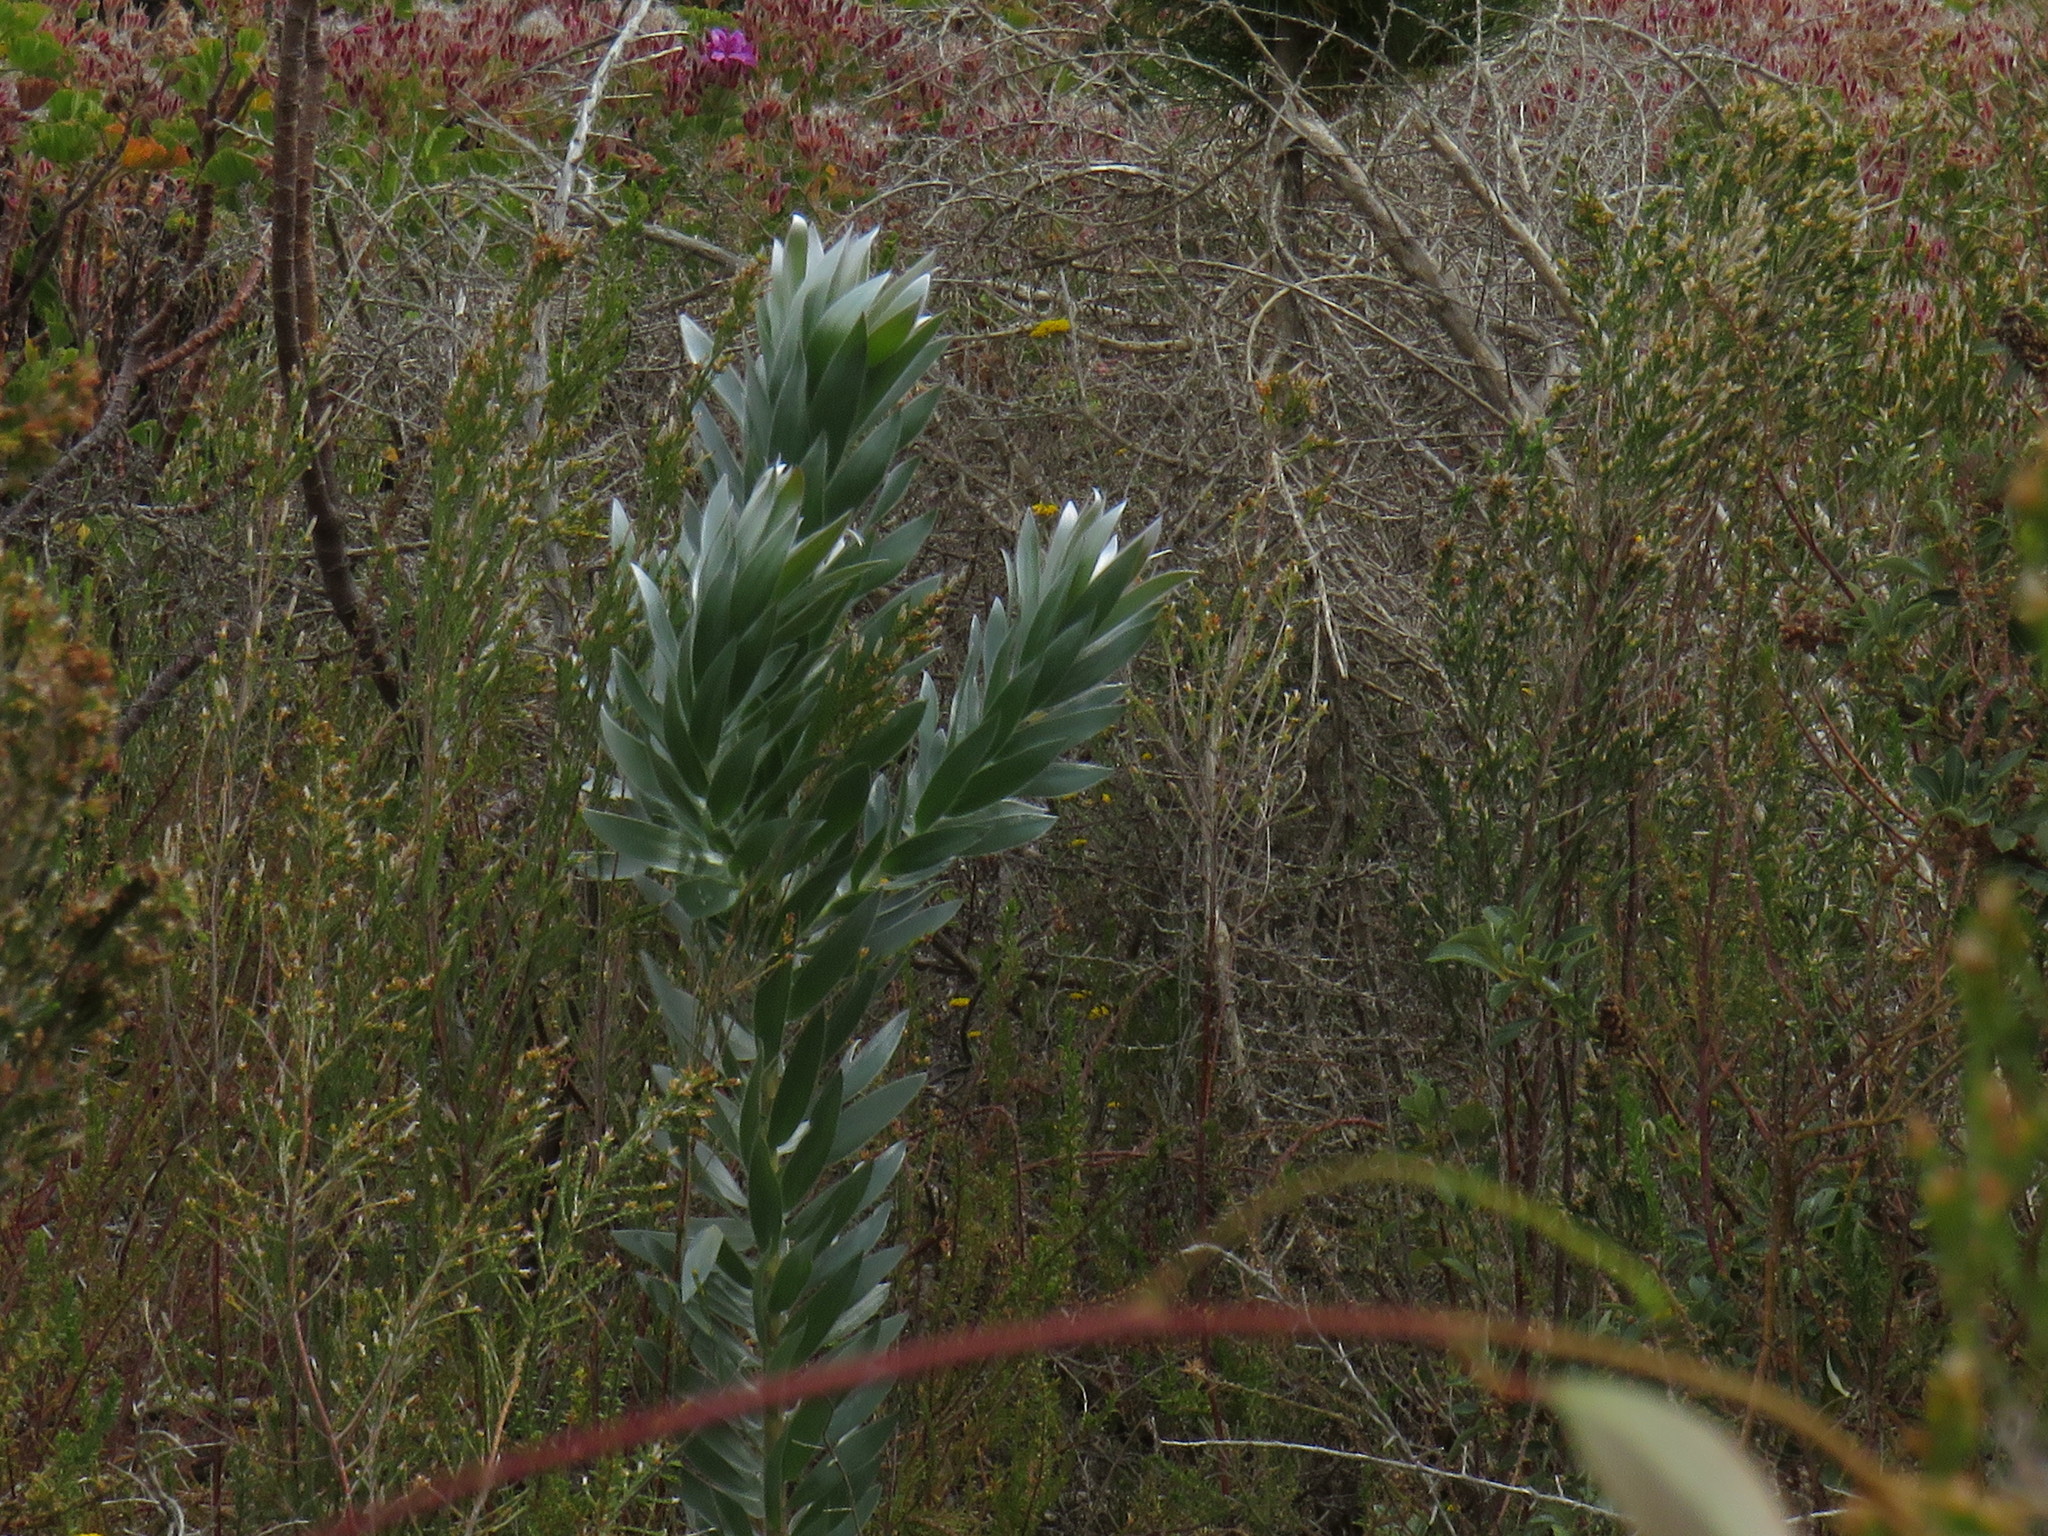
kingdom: Plantae
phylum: Tracheophyta
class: Magnoliopsida
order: Proteales
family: Proteaceae
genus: Leucadendron
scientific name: Leucadendron argenteum
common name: Cape silver tree
